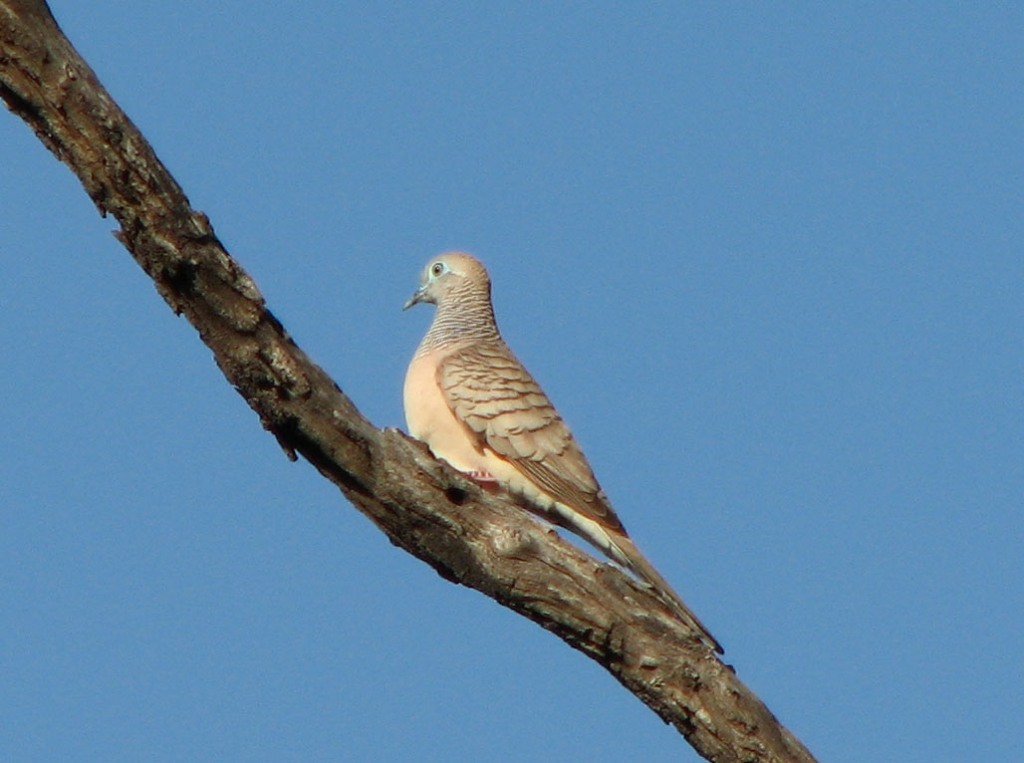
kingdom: Animalia
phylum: Chordata
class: Aves
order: Columbiformes
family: Columbidae
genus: Geopelia
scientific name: Geopelia placida
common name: Peaceful dove
